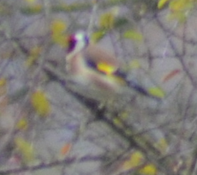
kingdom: Animalia
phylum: Chordata
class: Aves
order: Passeriformes
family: Fringillidae
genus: Carduelis
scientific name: Carduelis carduelis
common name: European goldfinch
